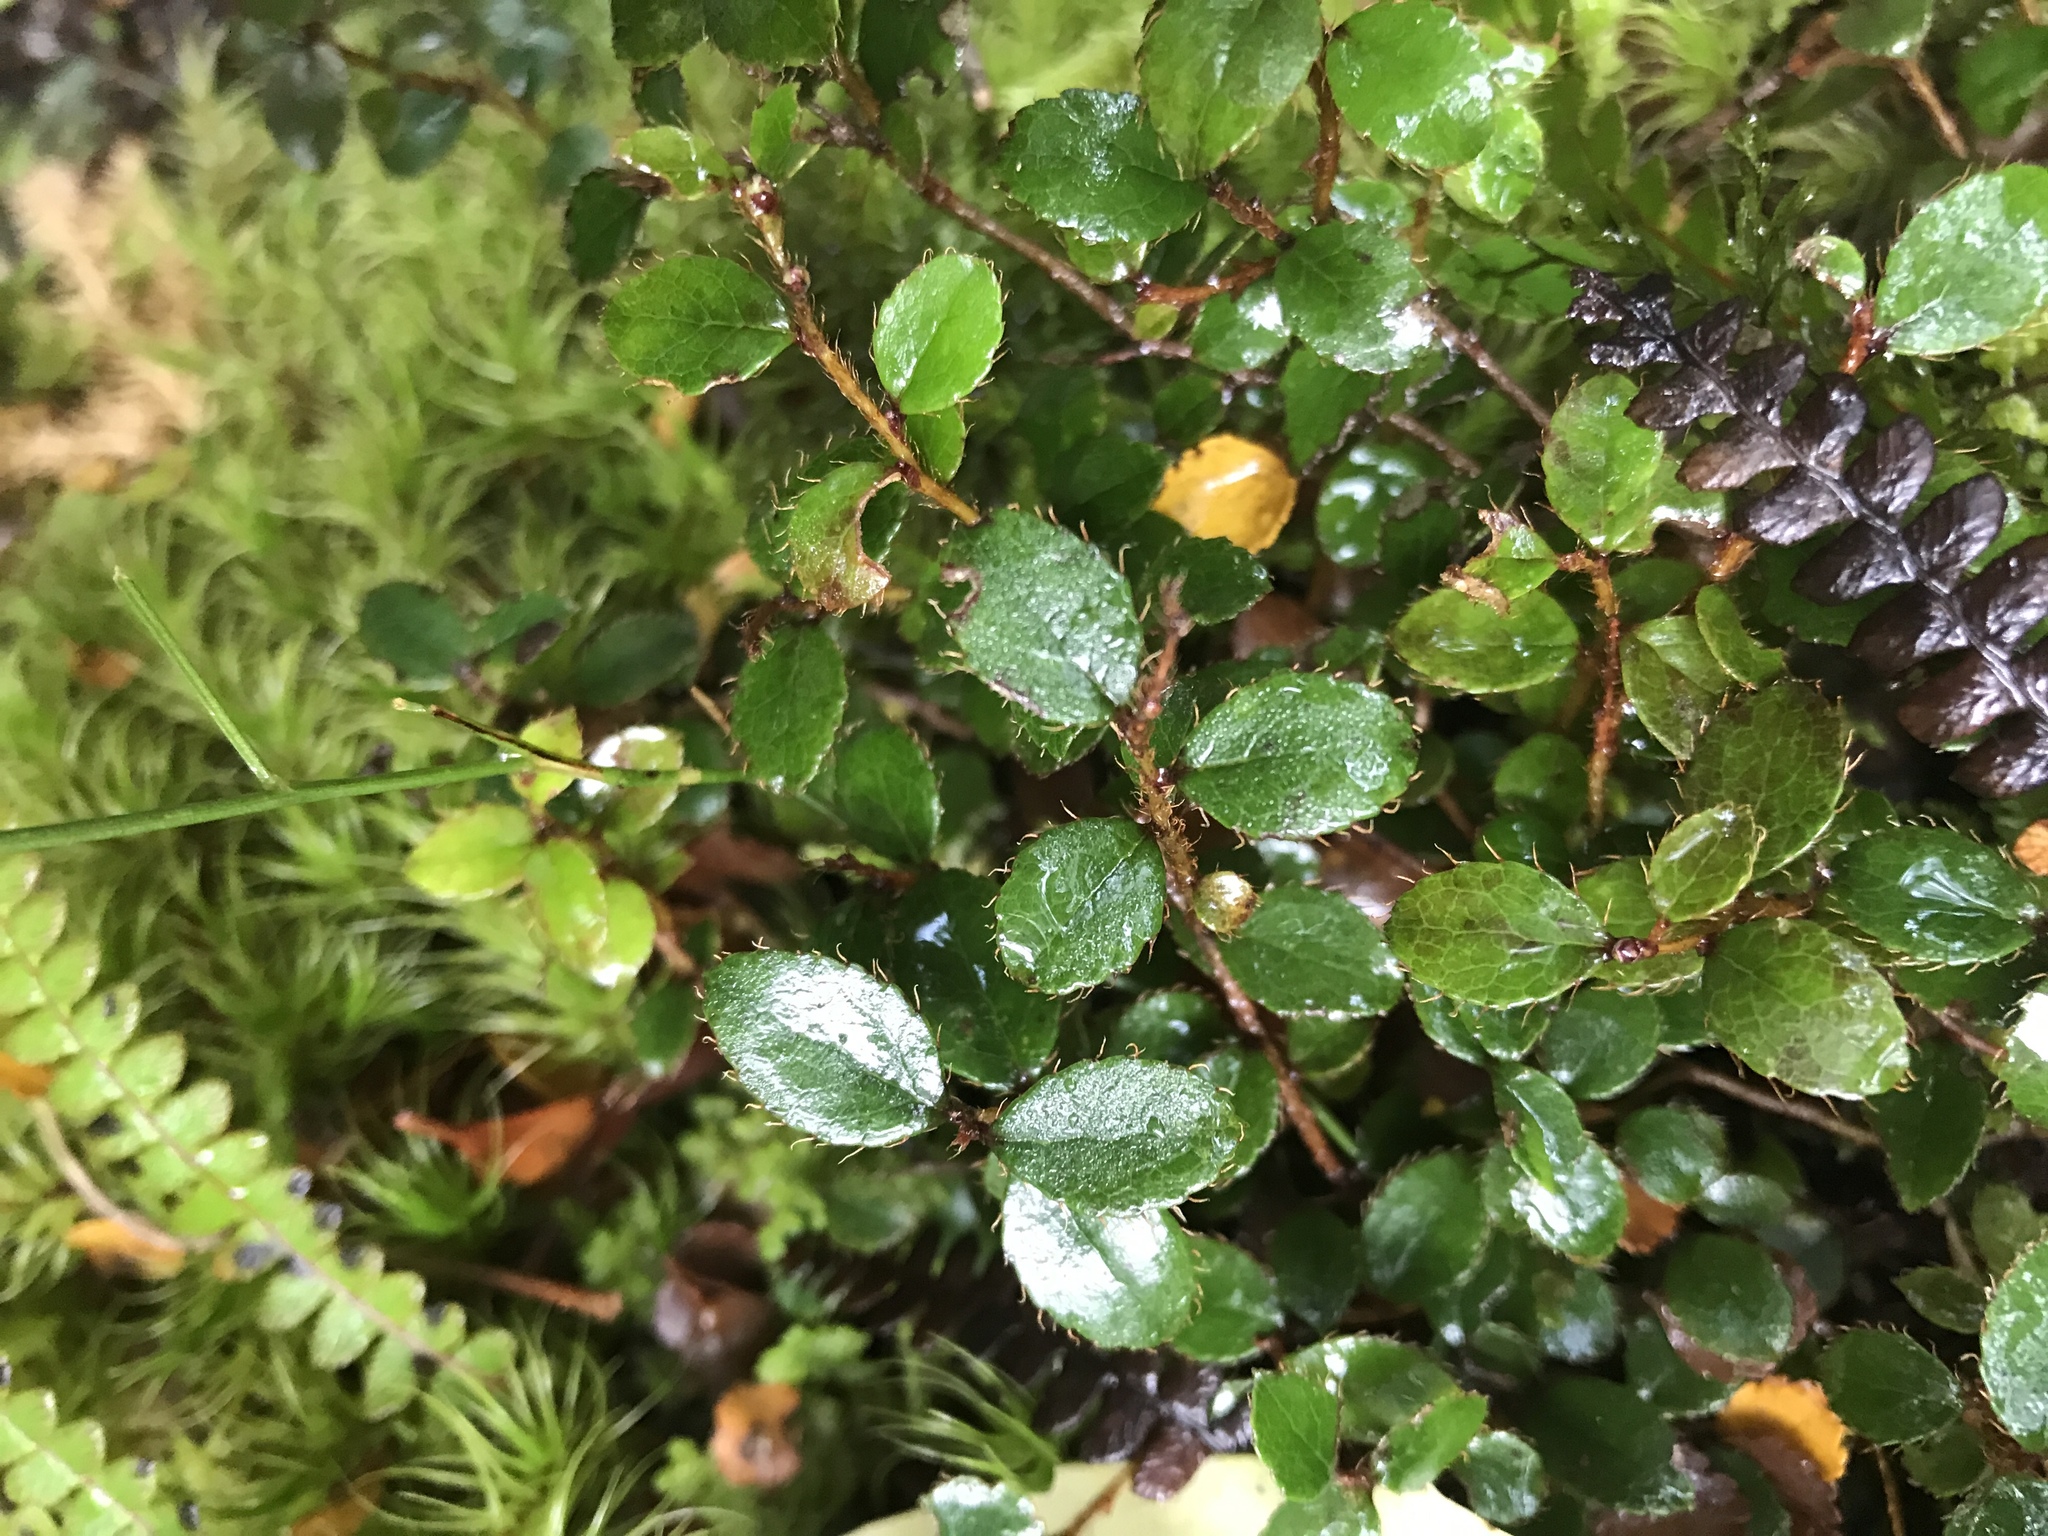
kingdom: Plantae
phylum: Tracheophyta
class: Magnoliopsida
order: Ericales
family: Ericaceae
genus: Gaultheria
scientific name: Gaultheria depressa
